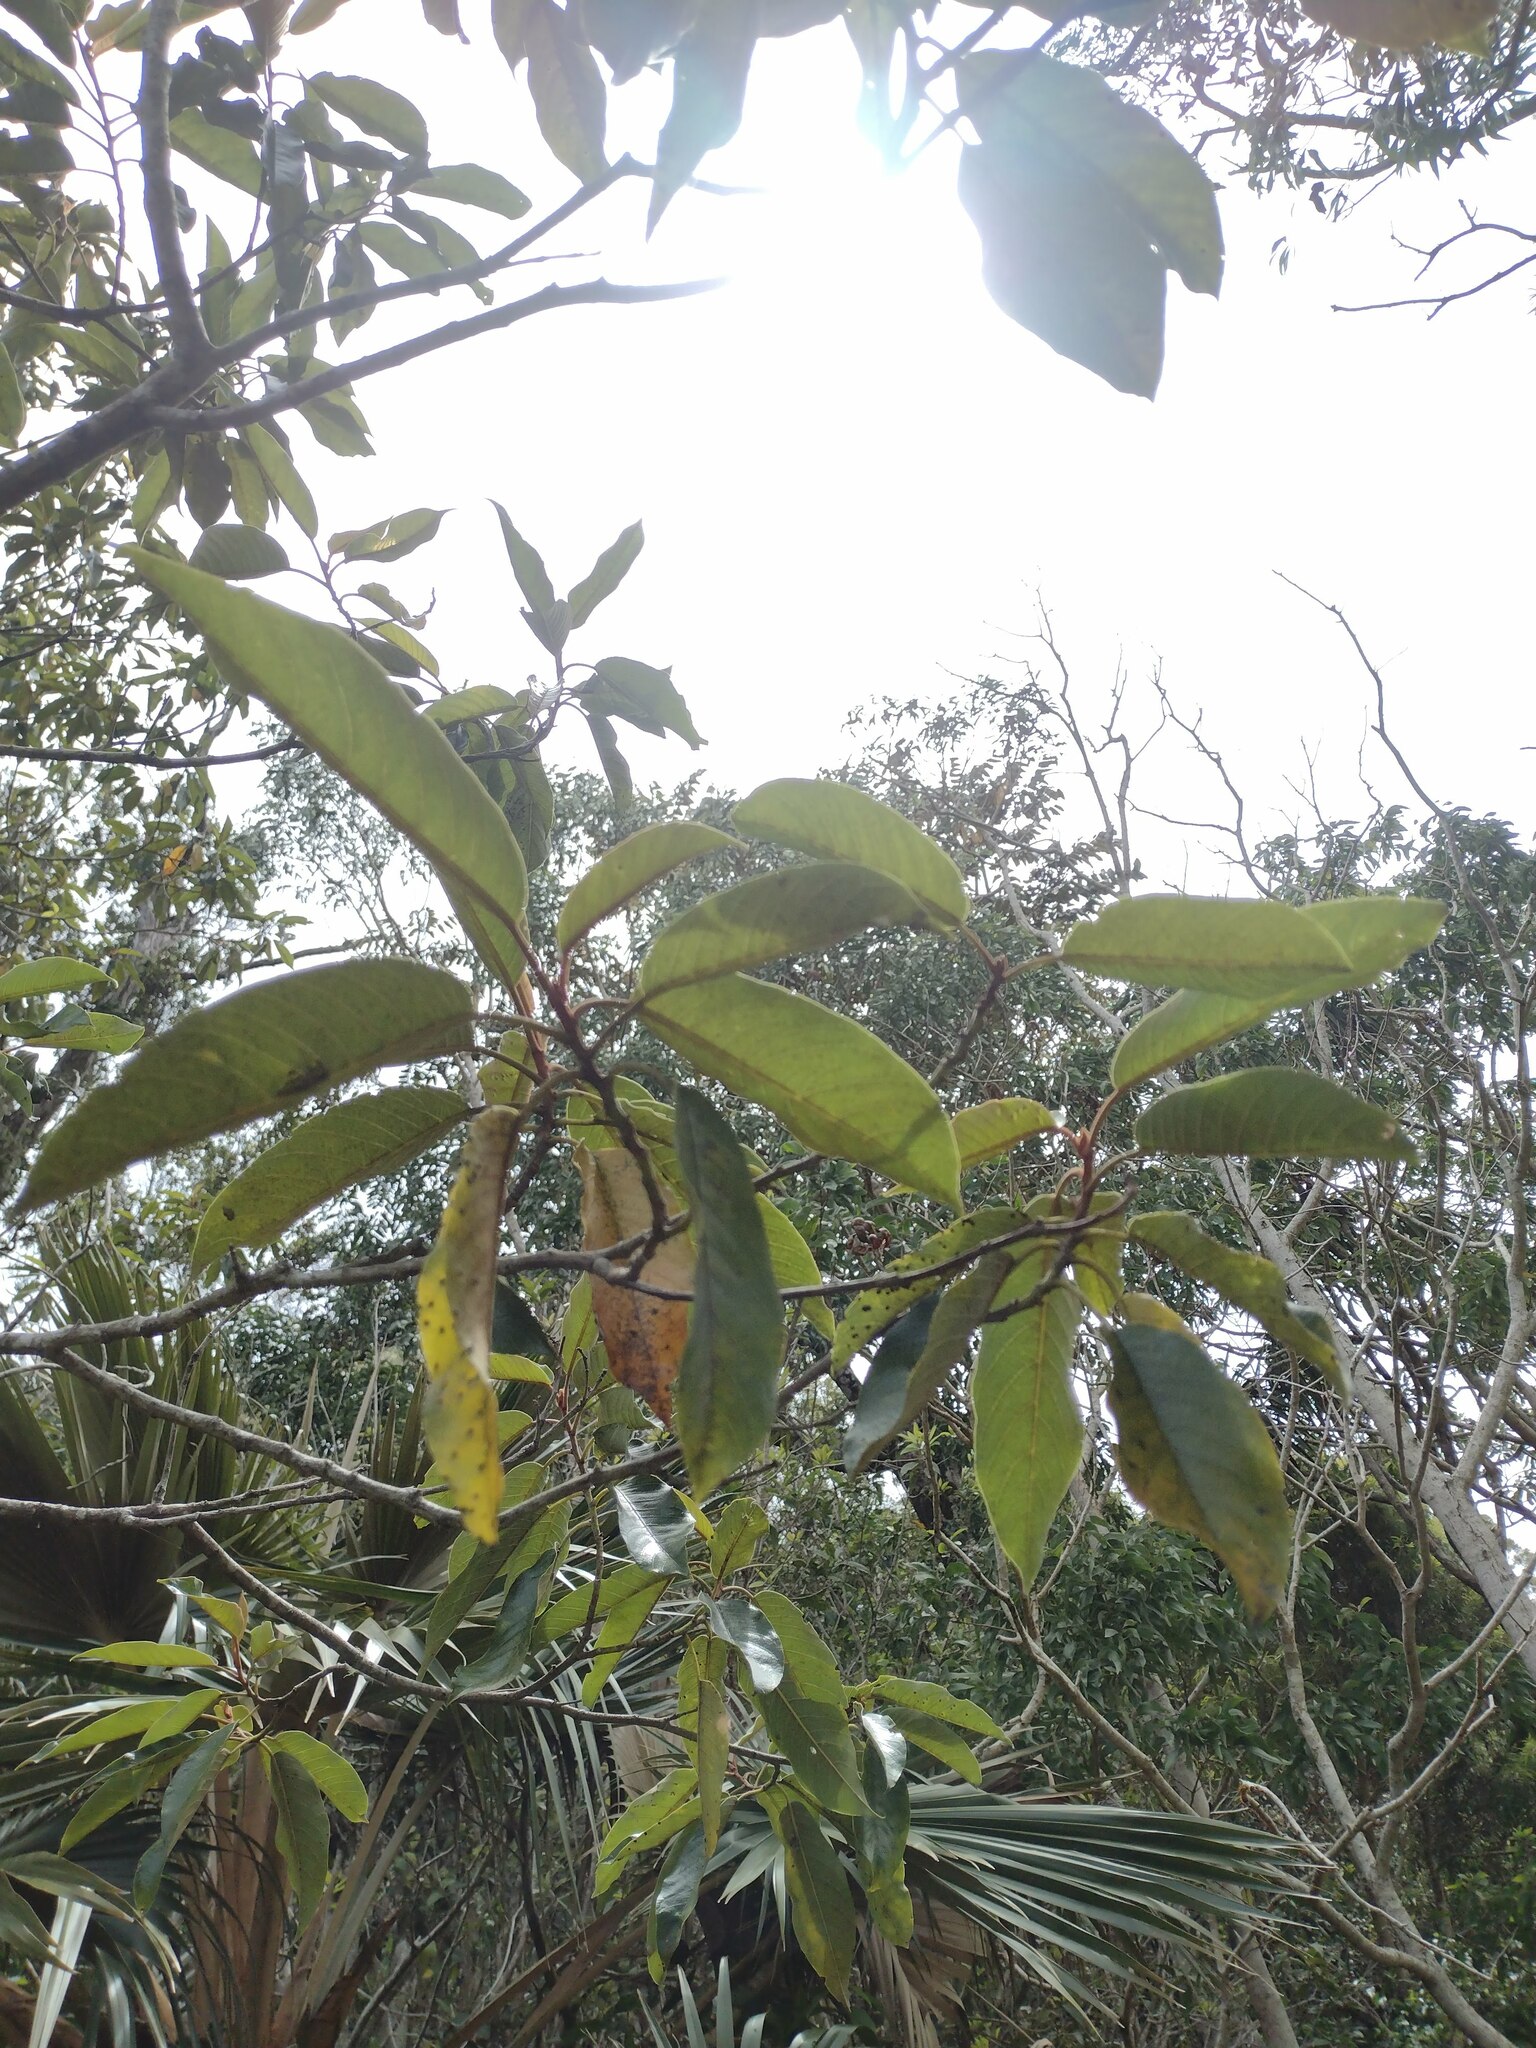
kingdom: Plantae
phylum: Tracheophyta
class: Magnoliopsida
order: Rosales
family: Rhamnaceae
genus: Alphitonia
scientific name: Alphitonia ponderosa
